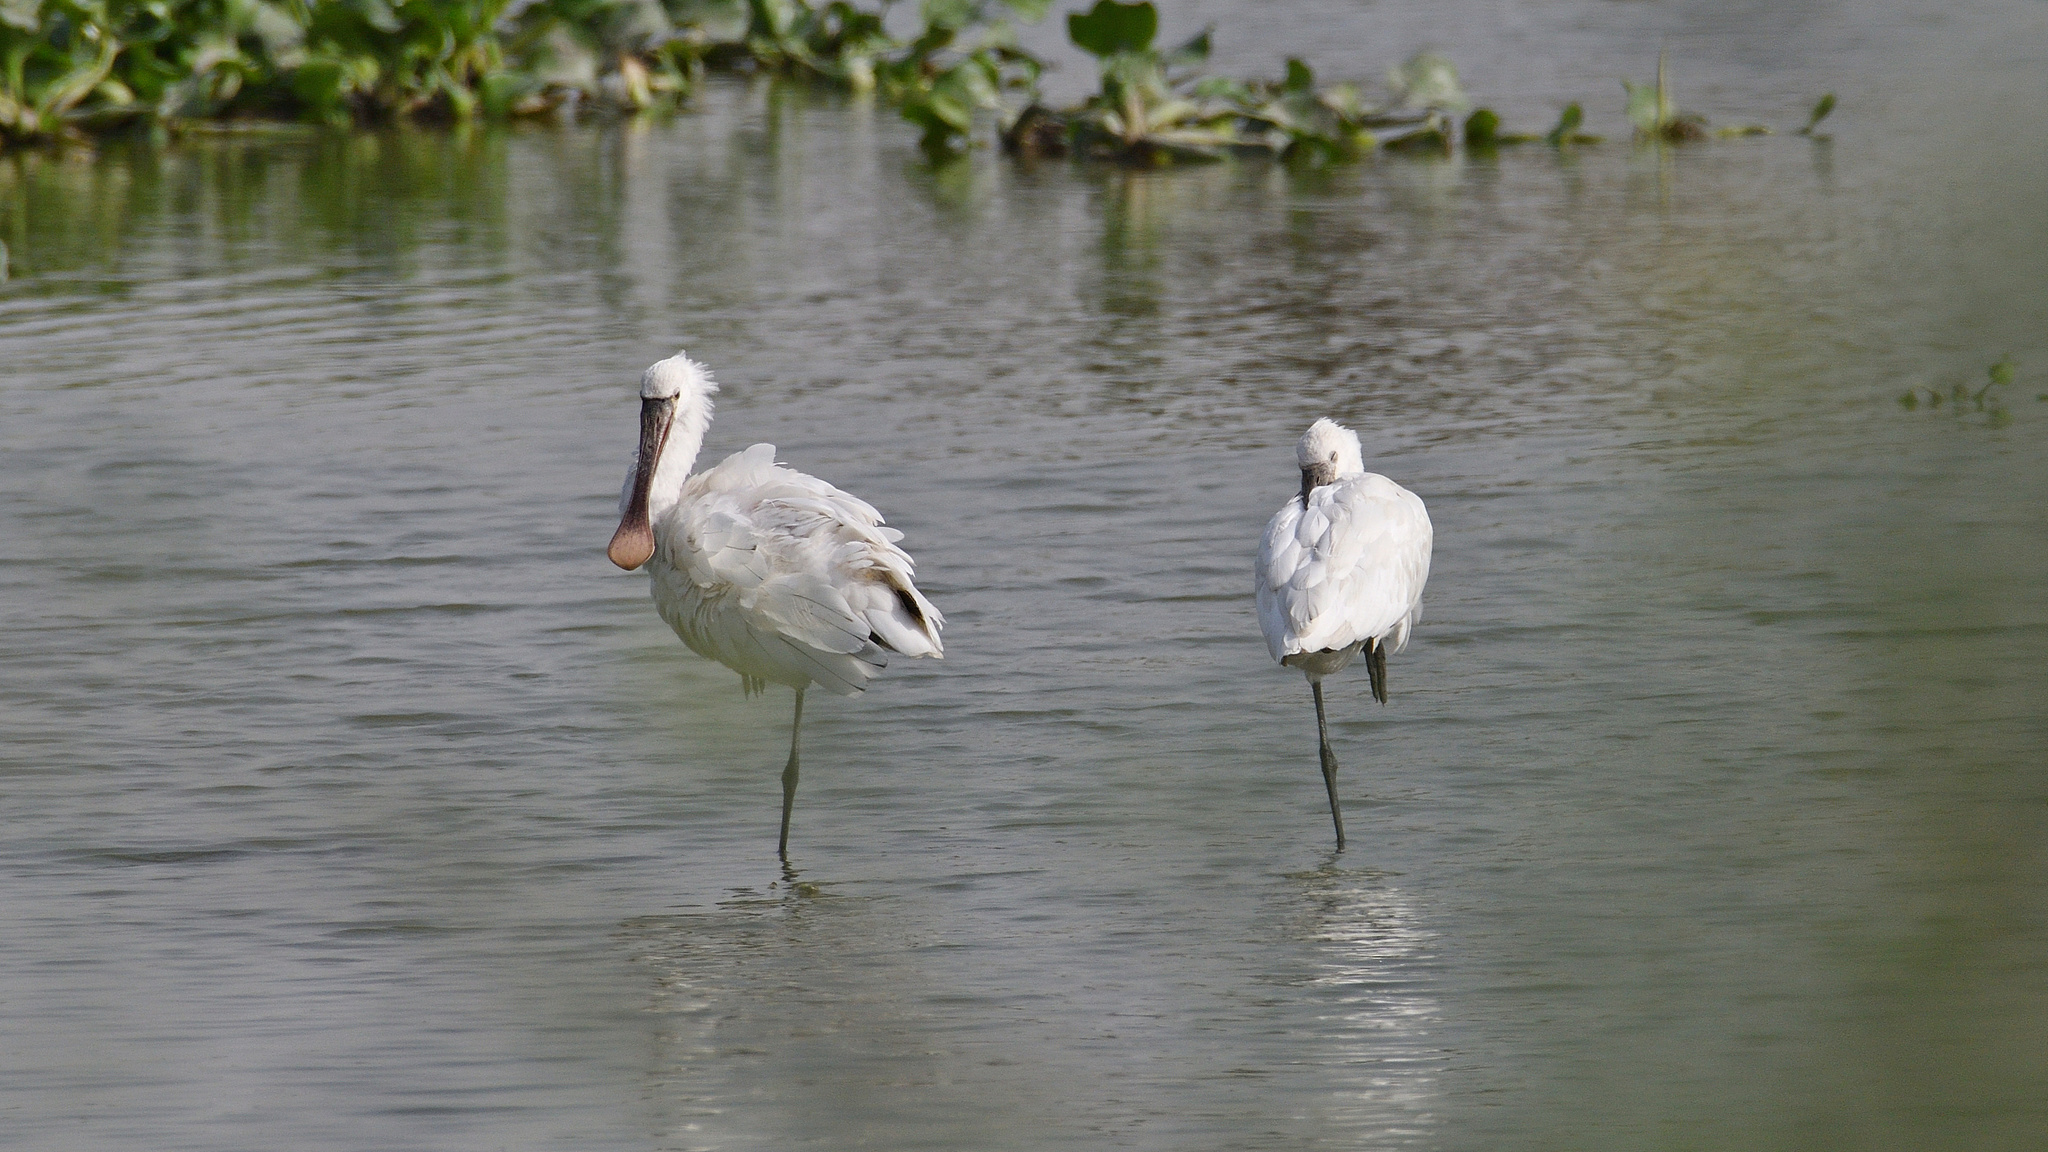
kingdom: Animalia
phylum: Chordata
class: Aves
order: Pelecaniformes
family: Threskiornithidae
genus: Platalea
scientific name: Platalea leucorodia
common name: Eurasian spoonbill
